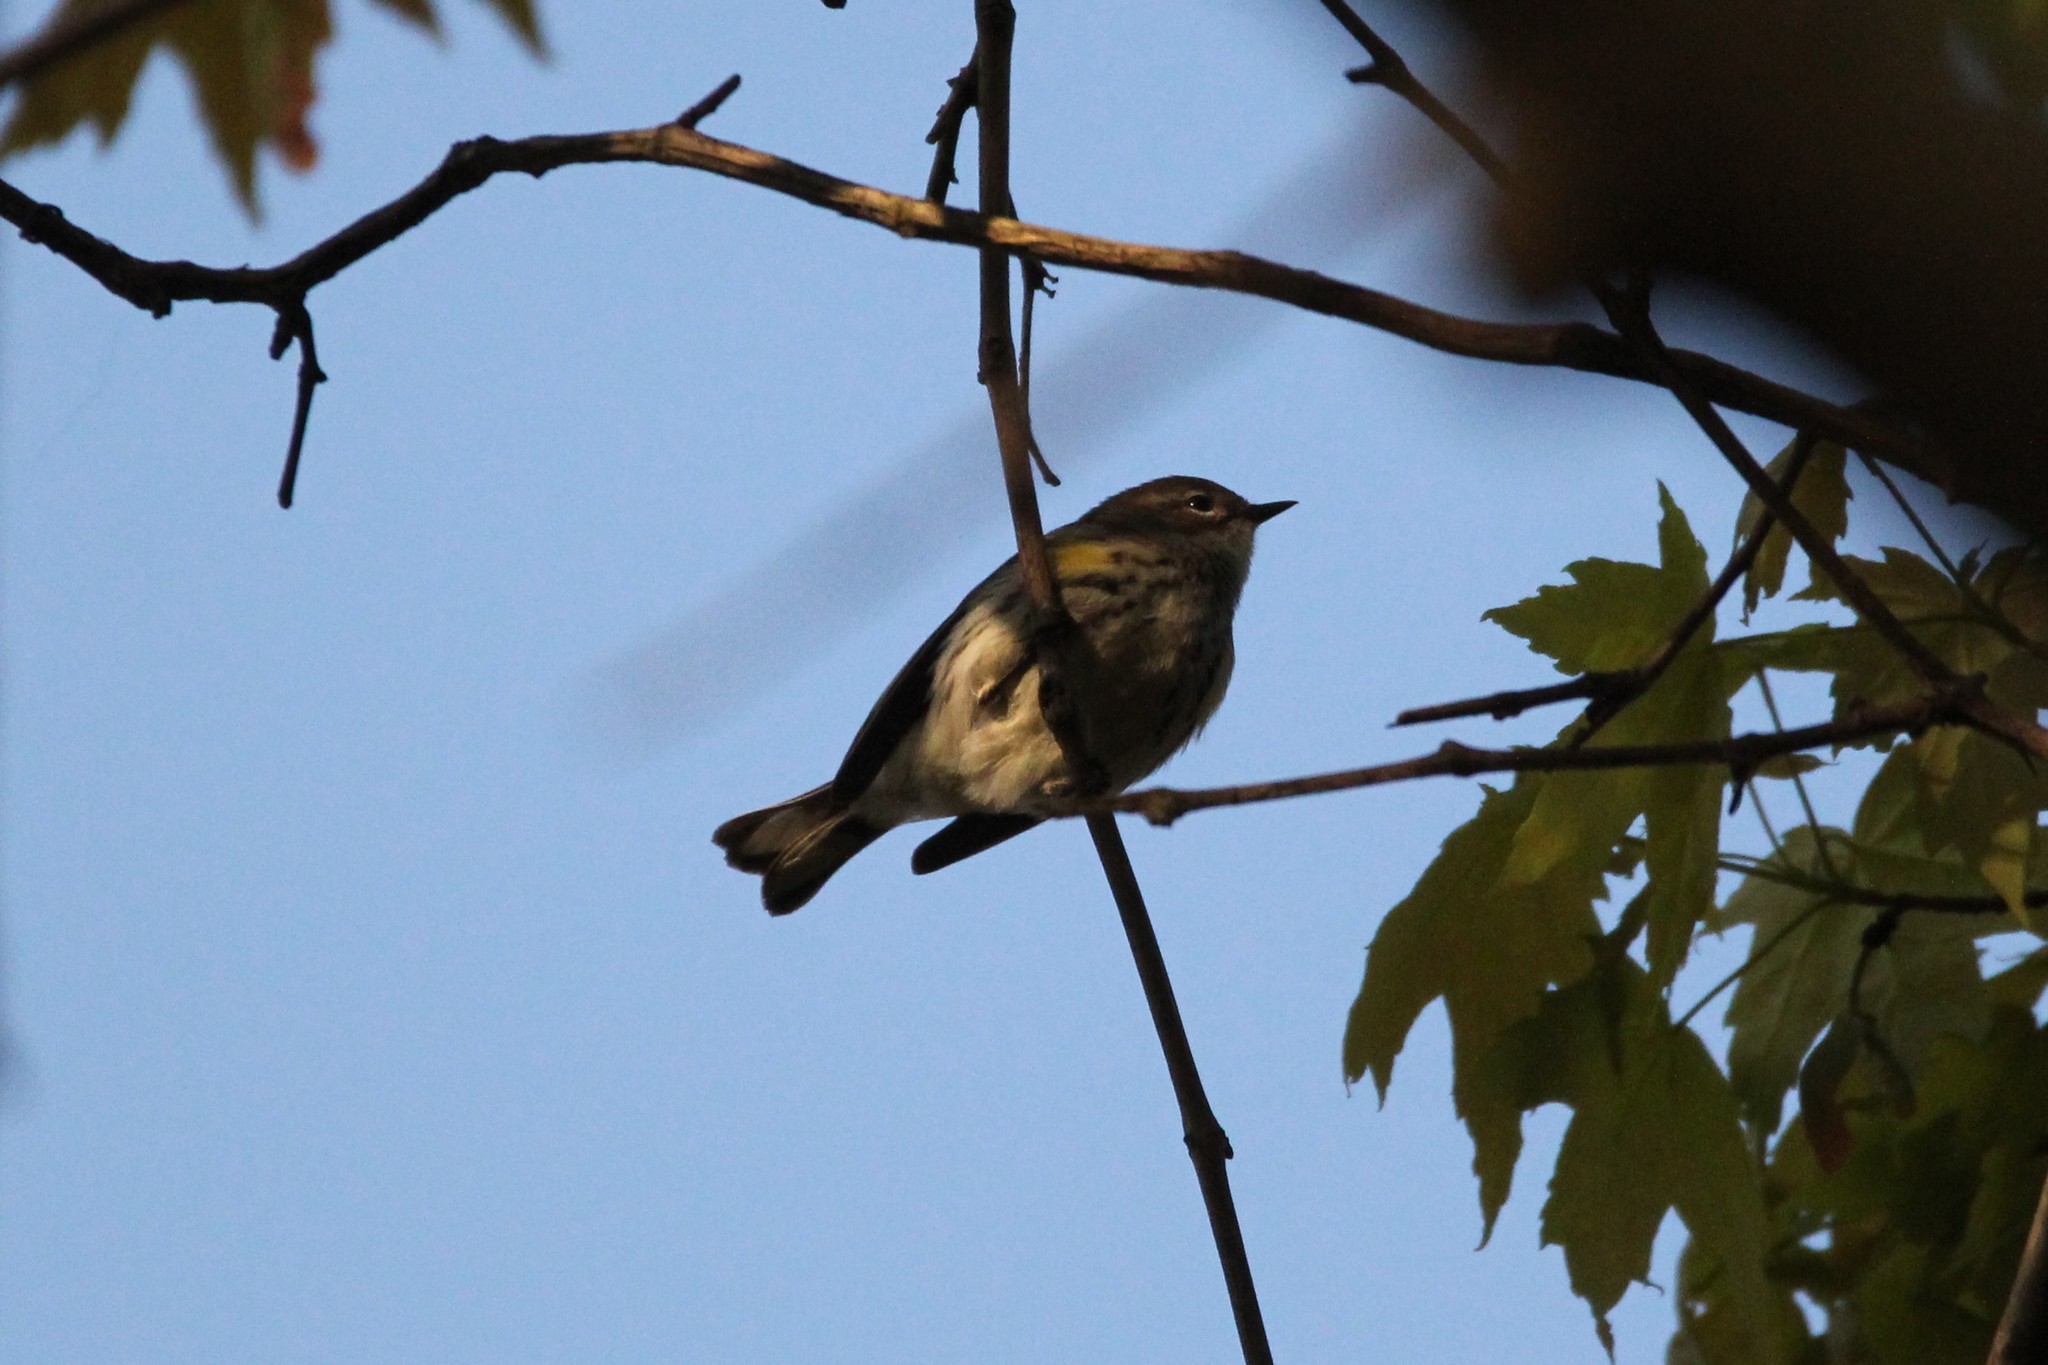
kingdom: Animalia
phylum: Chordata
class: Aves
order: Passeriformes
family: Parulidae
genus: Setophaga
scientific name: Setophaga coronata
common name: Myrtle warbler
